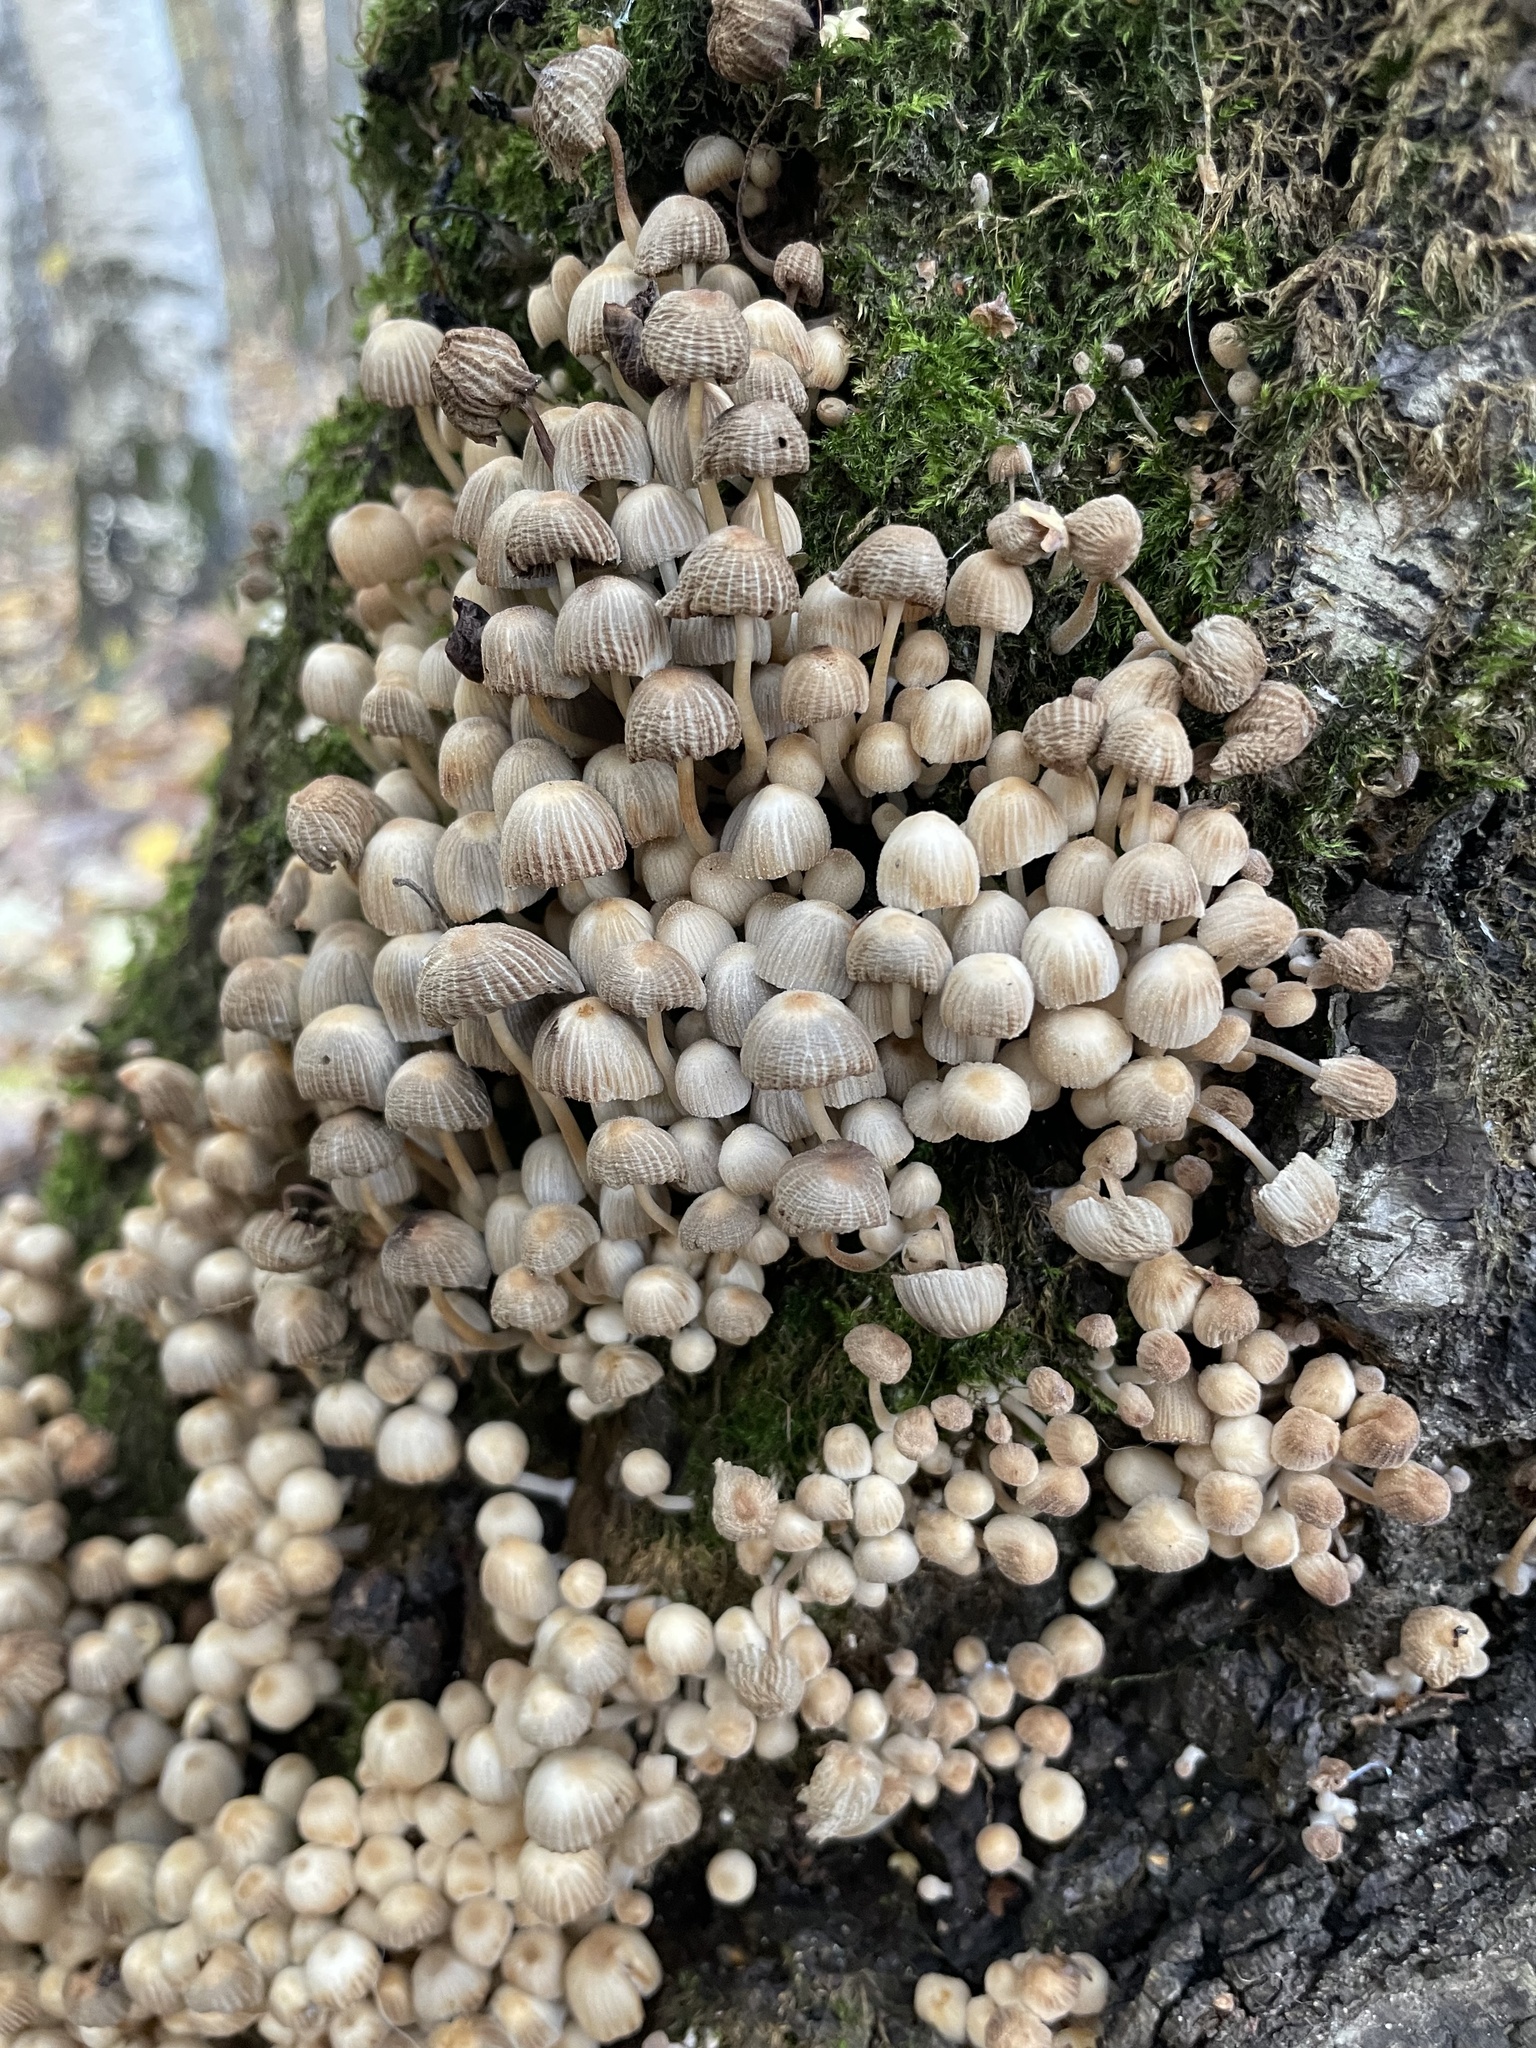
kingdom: Fungi
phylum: Basidiomycota
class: Agaricomycetes
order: Agaricales
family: Psathyrellaceae
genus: Coprinellus
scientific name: Coprinellus disseminatus
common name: Fairies' bonnets
